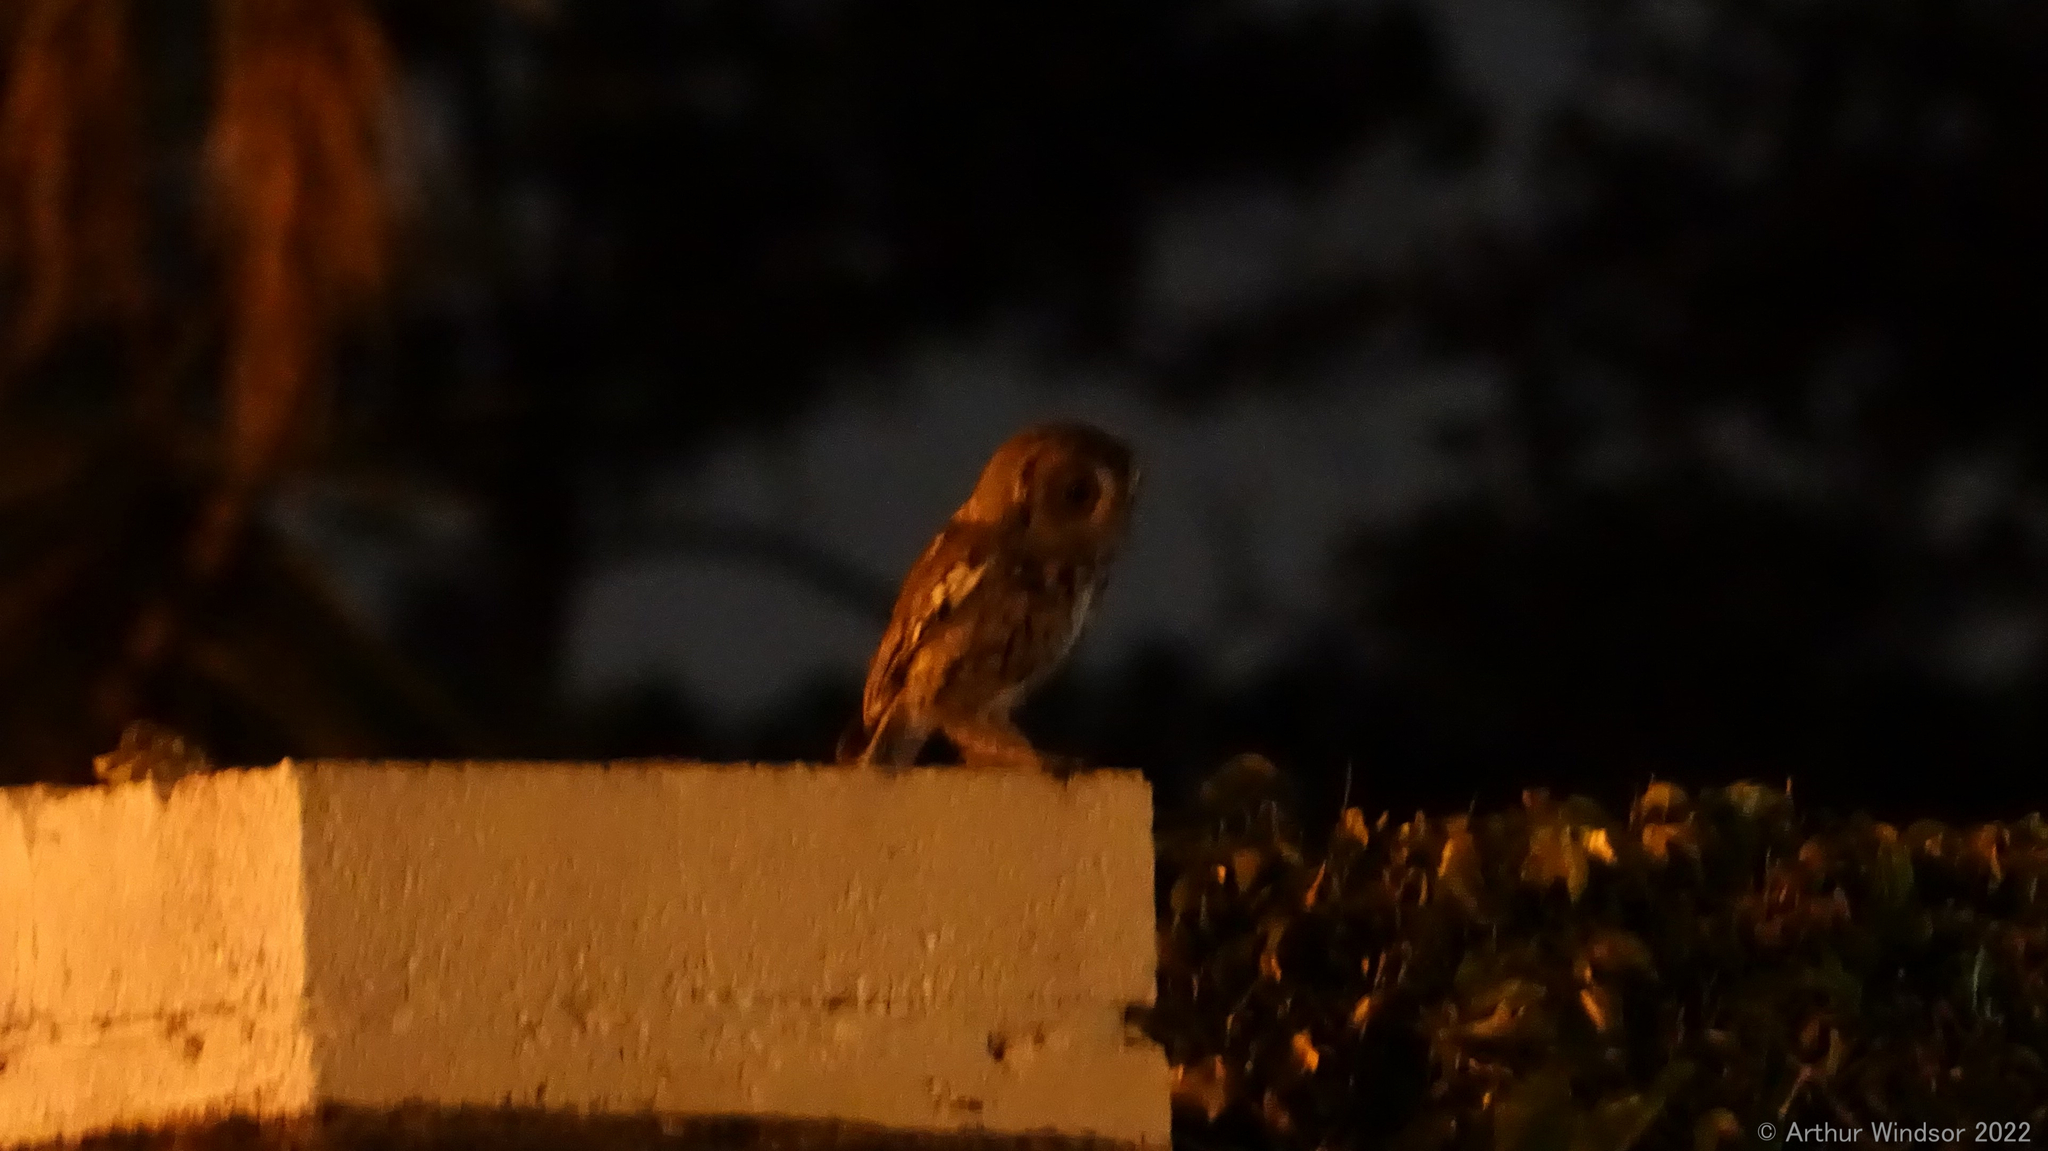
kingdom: Animalia
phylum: Chordata
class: Aves
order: Strigiformes
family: Strigidae
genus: Megascops
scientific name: Megascops asio
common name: Eastern screech-owl
